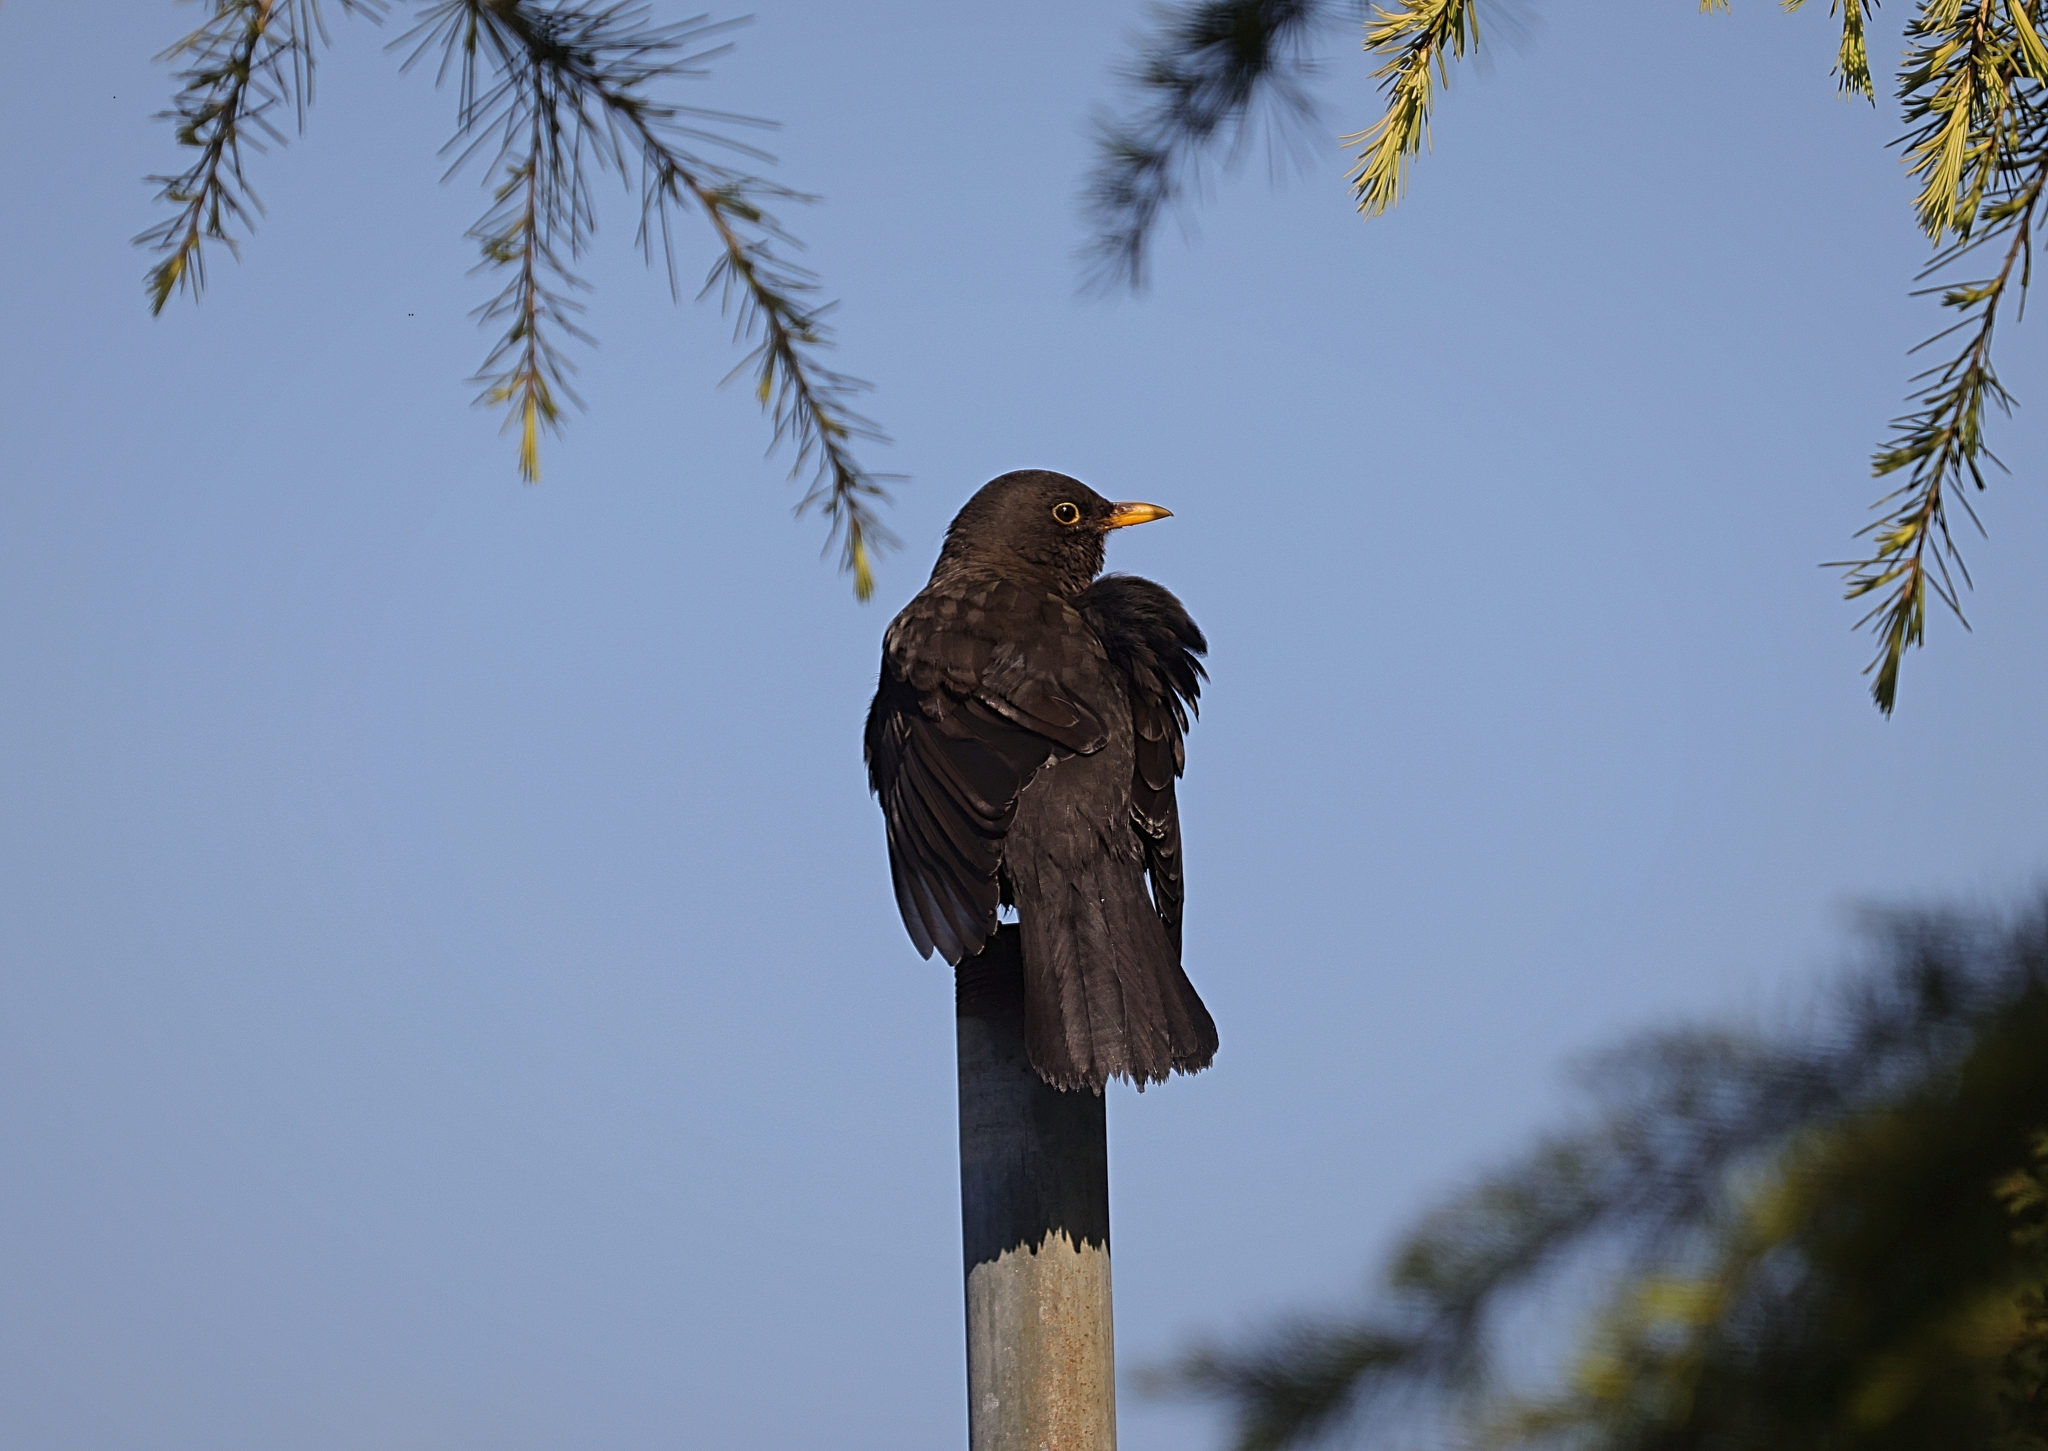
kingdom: Animalia
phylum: Chordata
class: Aves
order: Passeriformes
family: Turdidae
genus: Turdus
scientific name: Turdus merula
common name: Common blackbird
